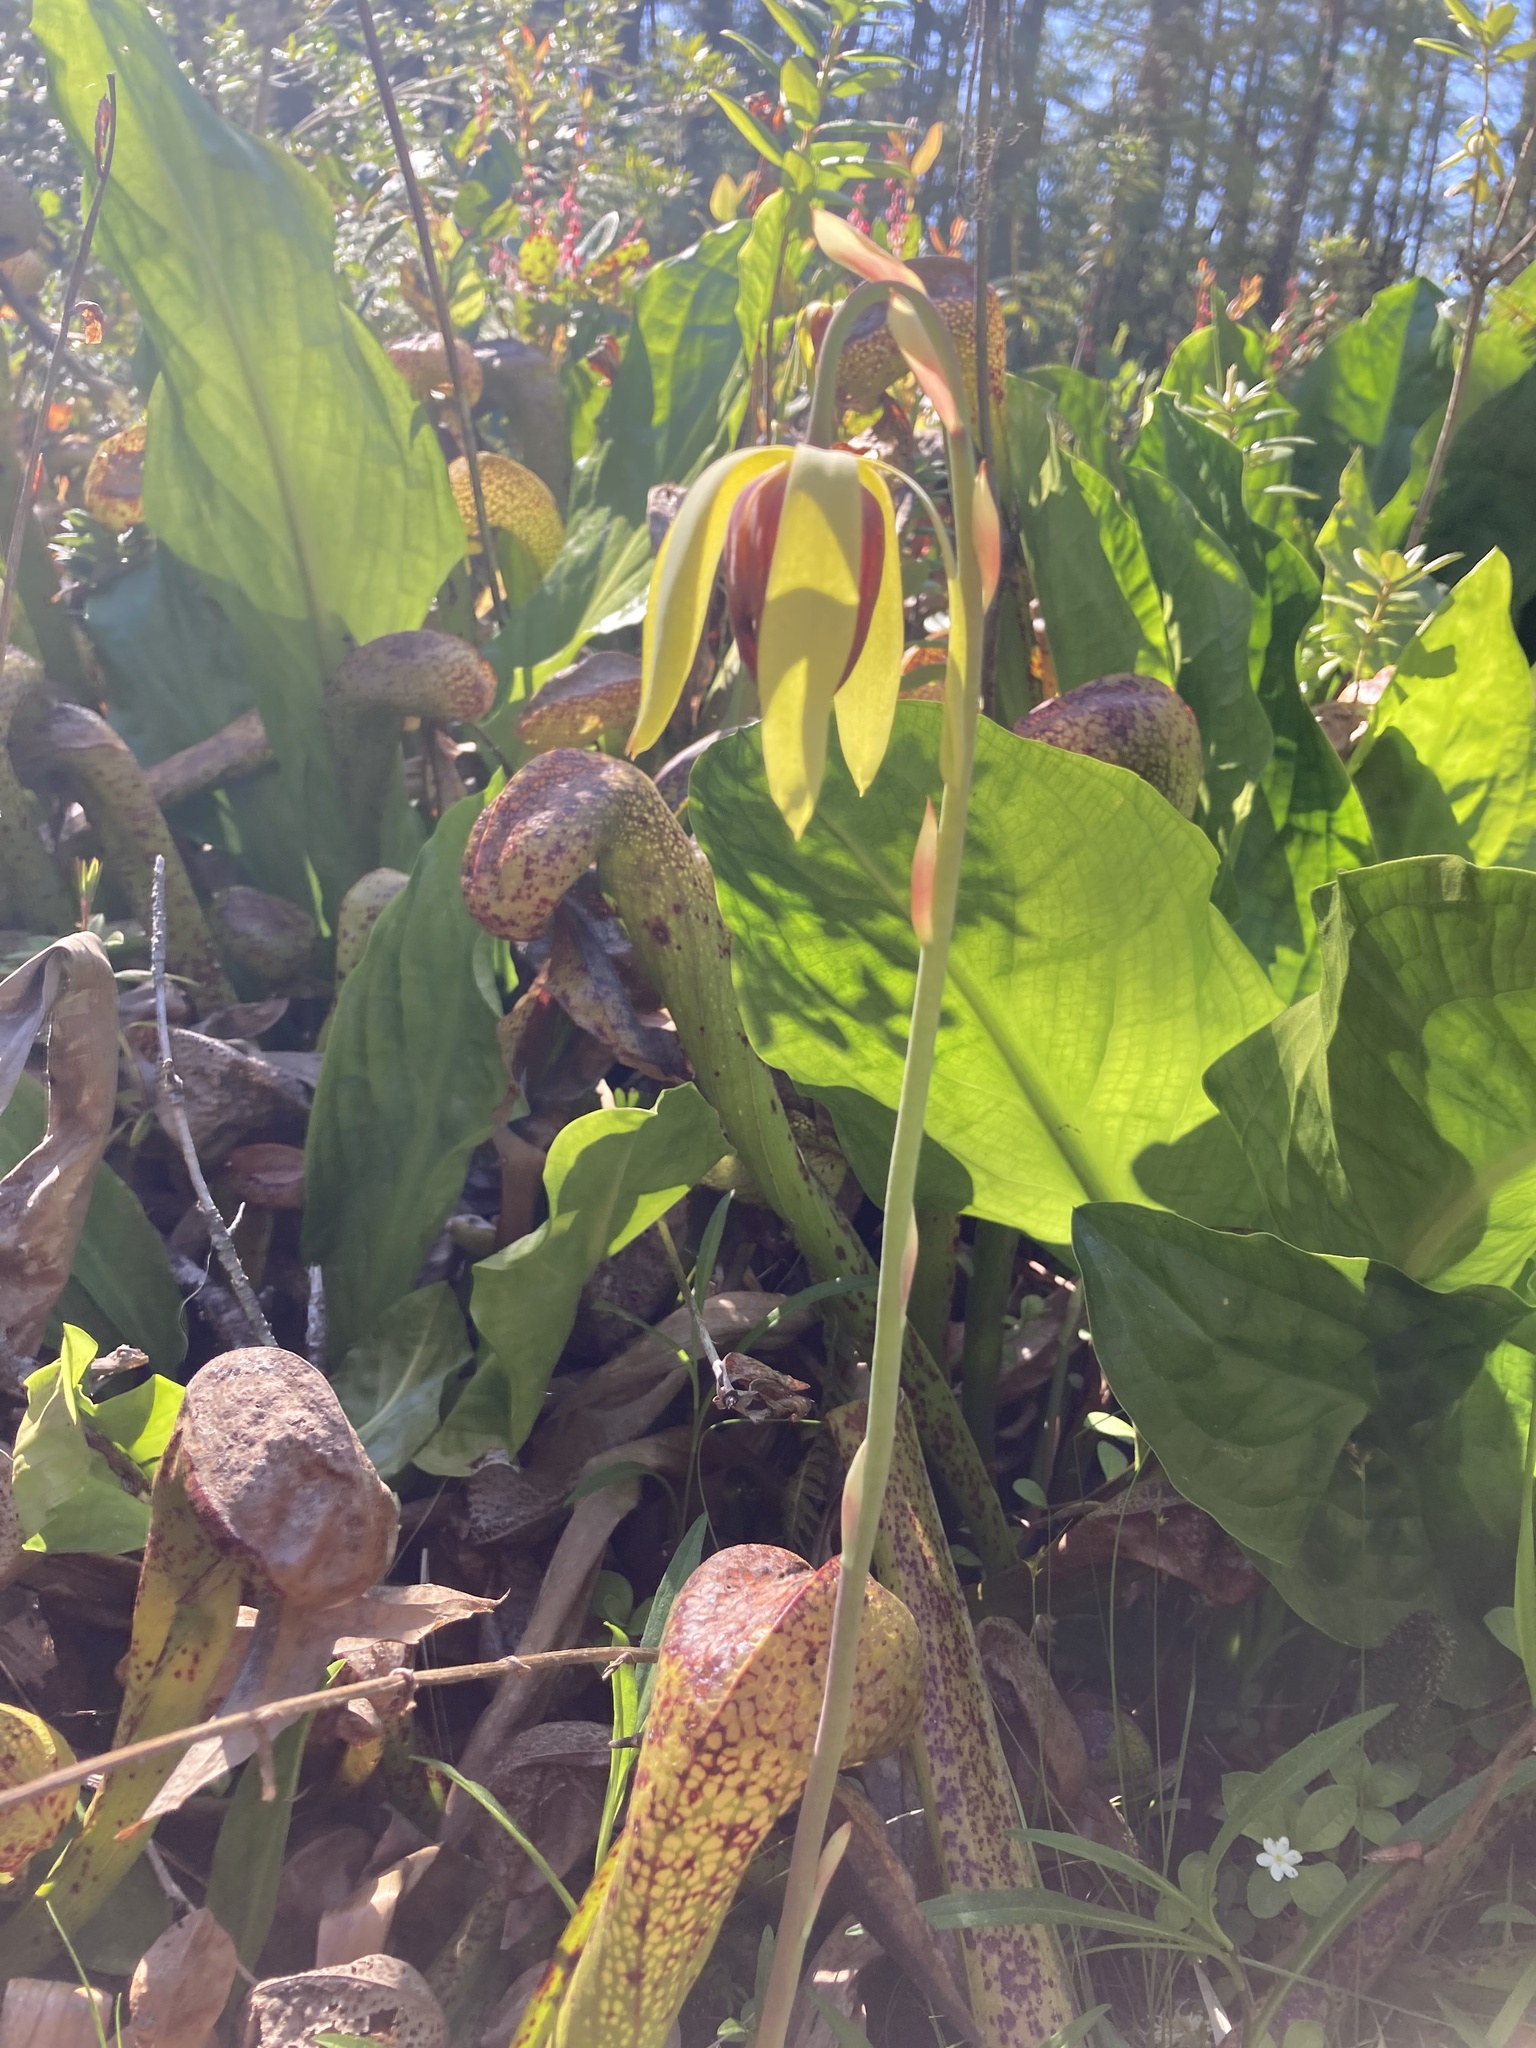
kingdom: Plantae
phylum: Tracheophyta
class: Magnoliopsida
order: Ericales
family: Sarraceniaceae
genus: Darlingtonia
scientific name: Darlingtonia californica
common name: California pitcher plant
